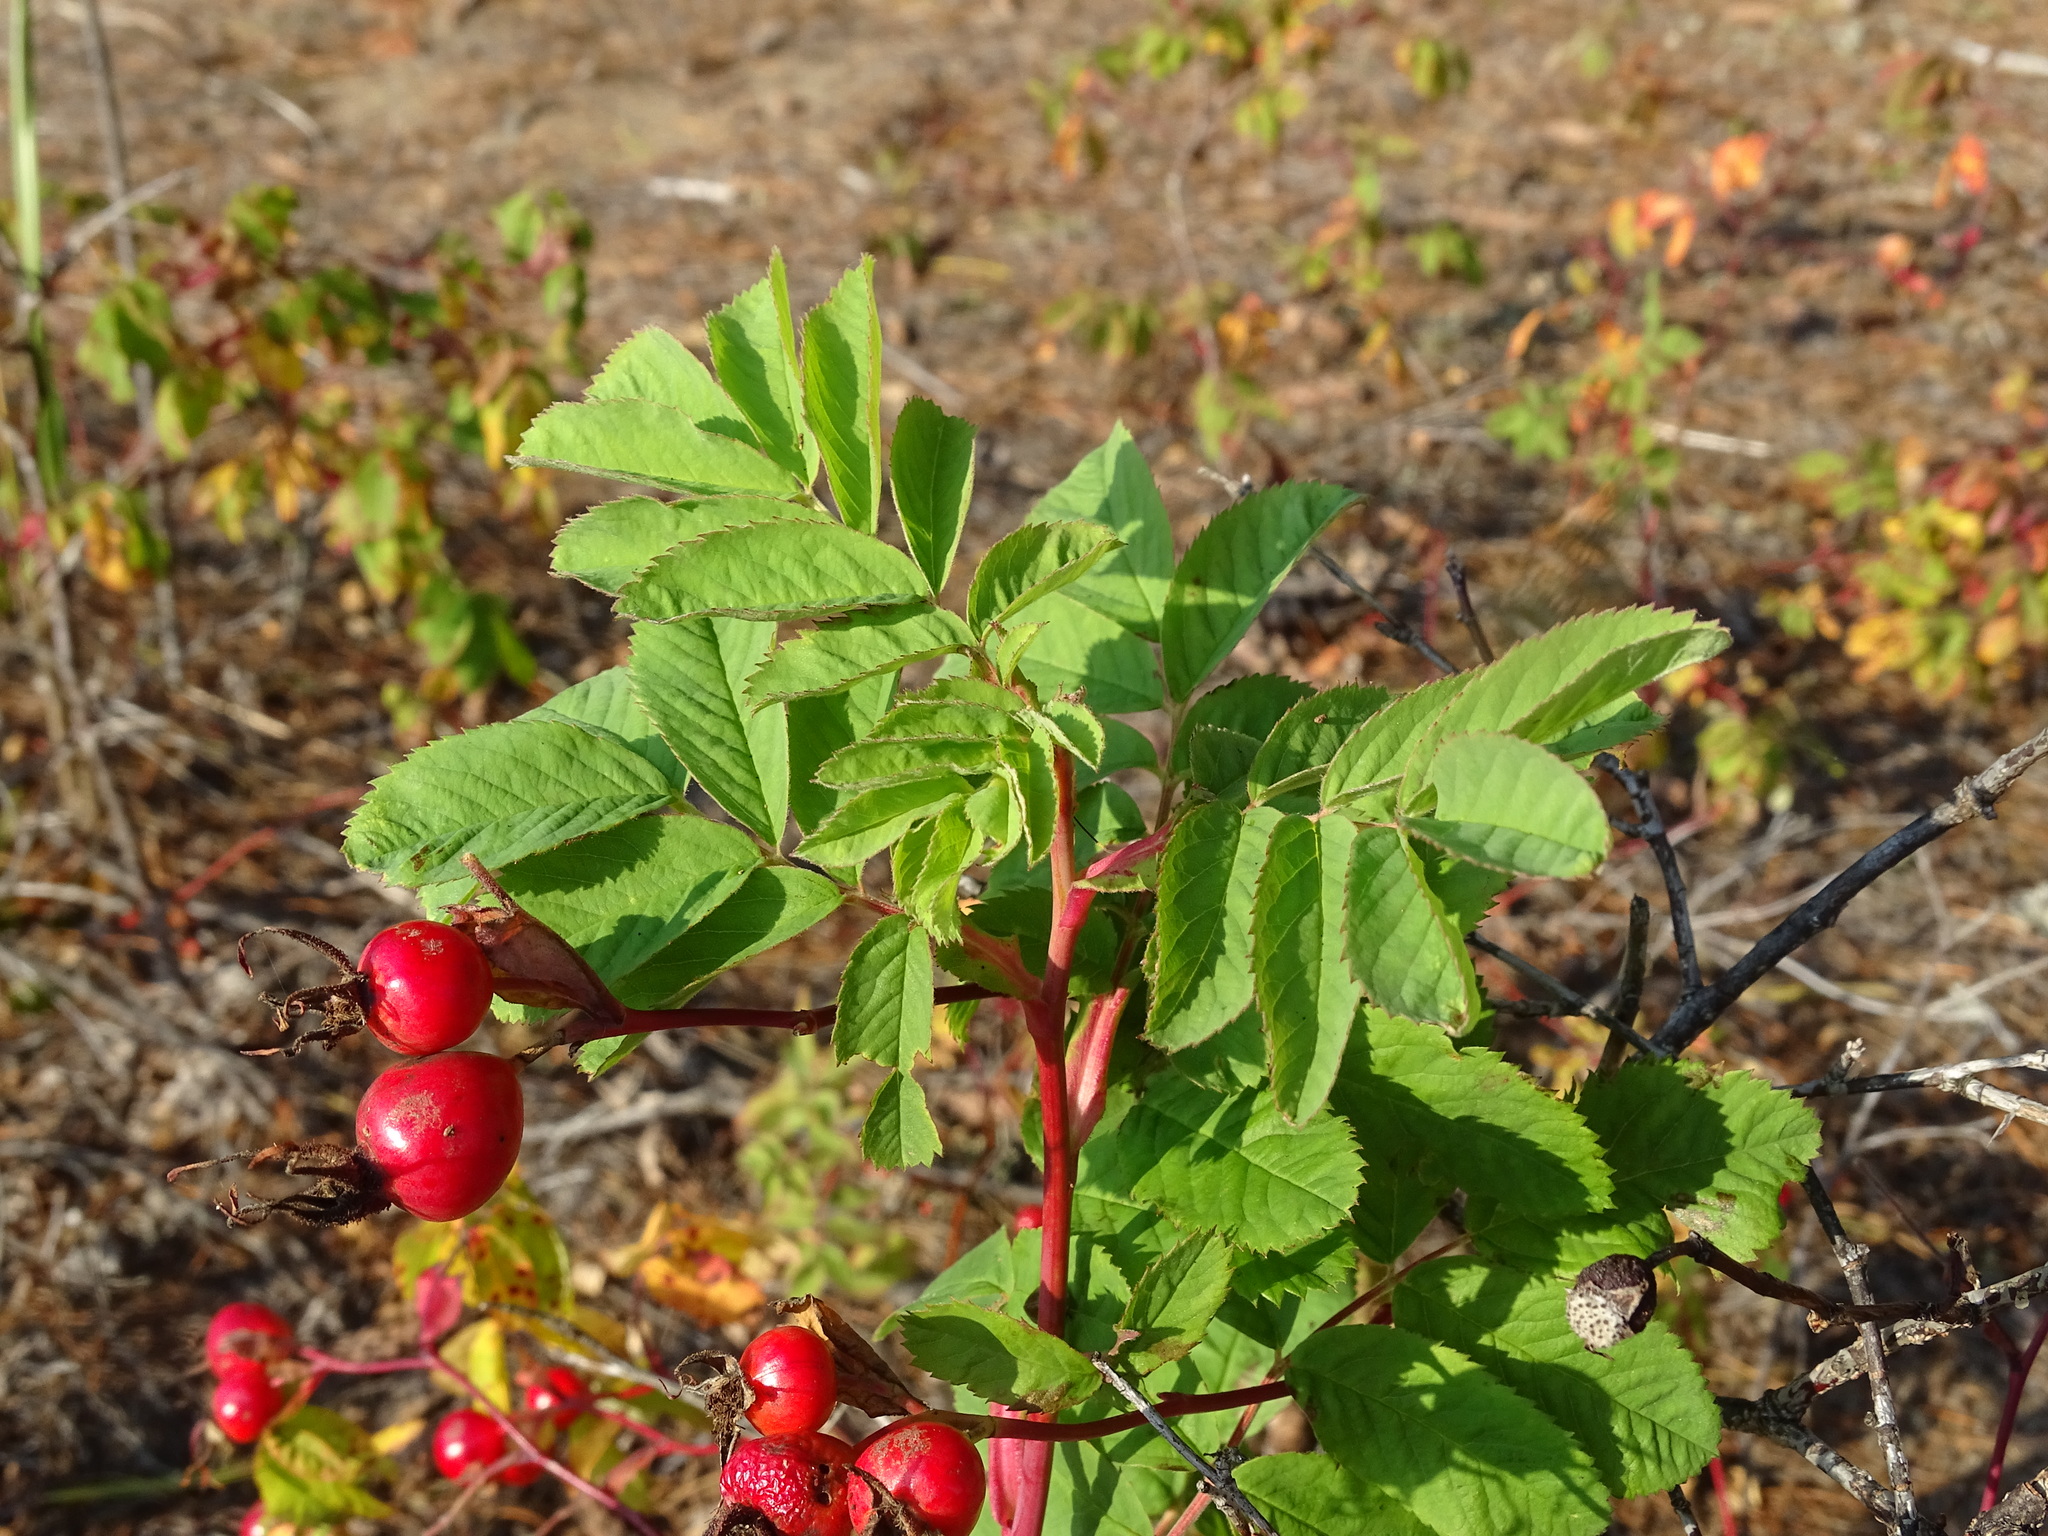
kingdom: Plantae
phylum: Tracheophyta
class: Magnoliopsida
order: Rosales
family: Rosaceae
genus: Rosa
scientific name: Rosa blanda
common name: Smooth rose
